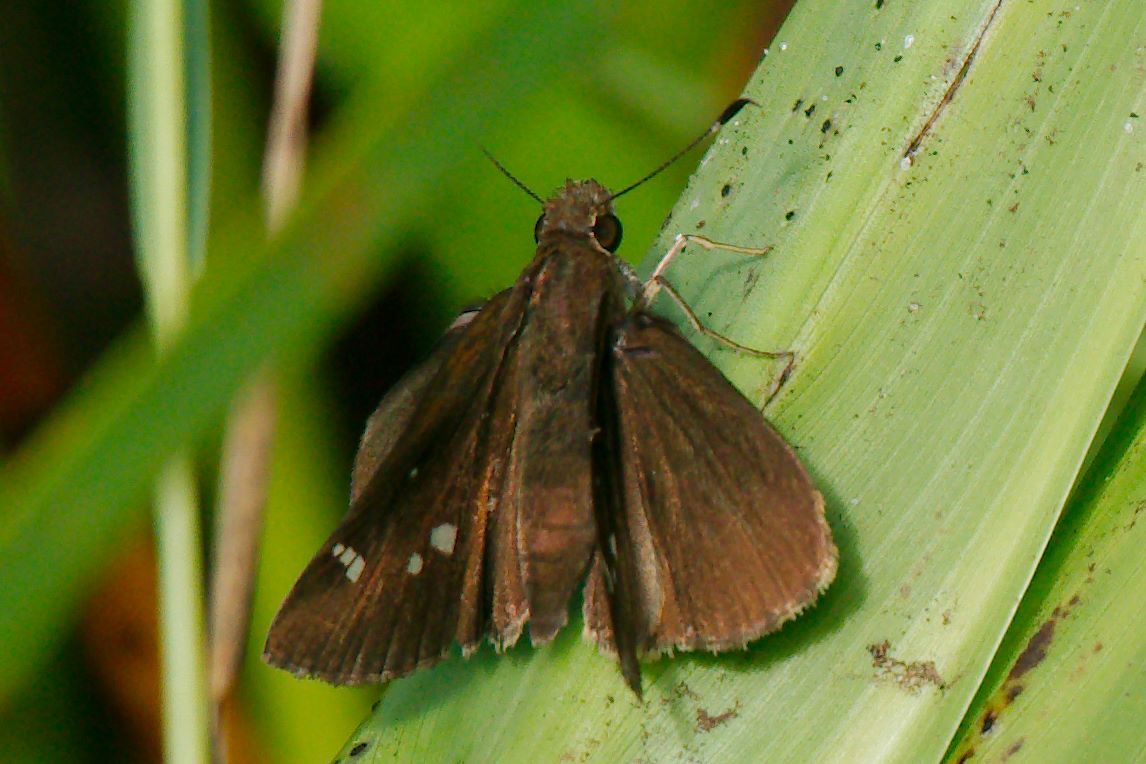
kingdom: Animalia
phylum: Arthropoda
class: Insecta
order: Lepidoptera
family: Hesperiidae
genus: Lerema
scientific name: Lerema accius
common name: Clouded skipper
